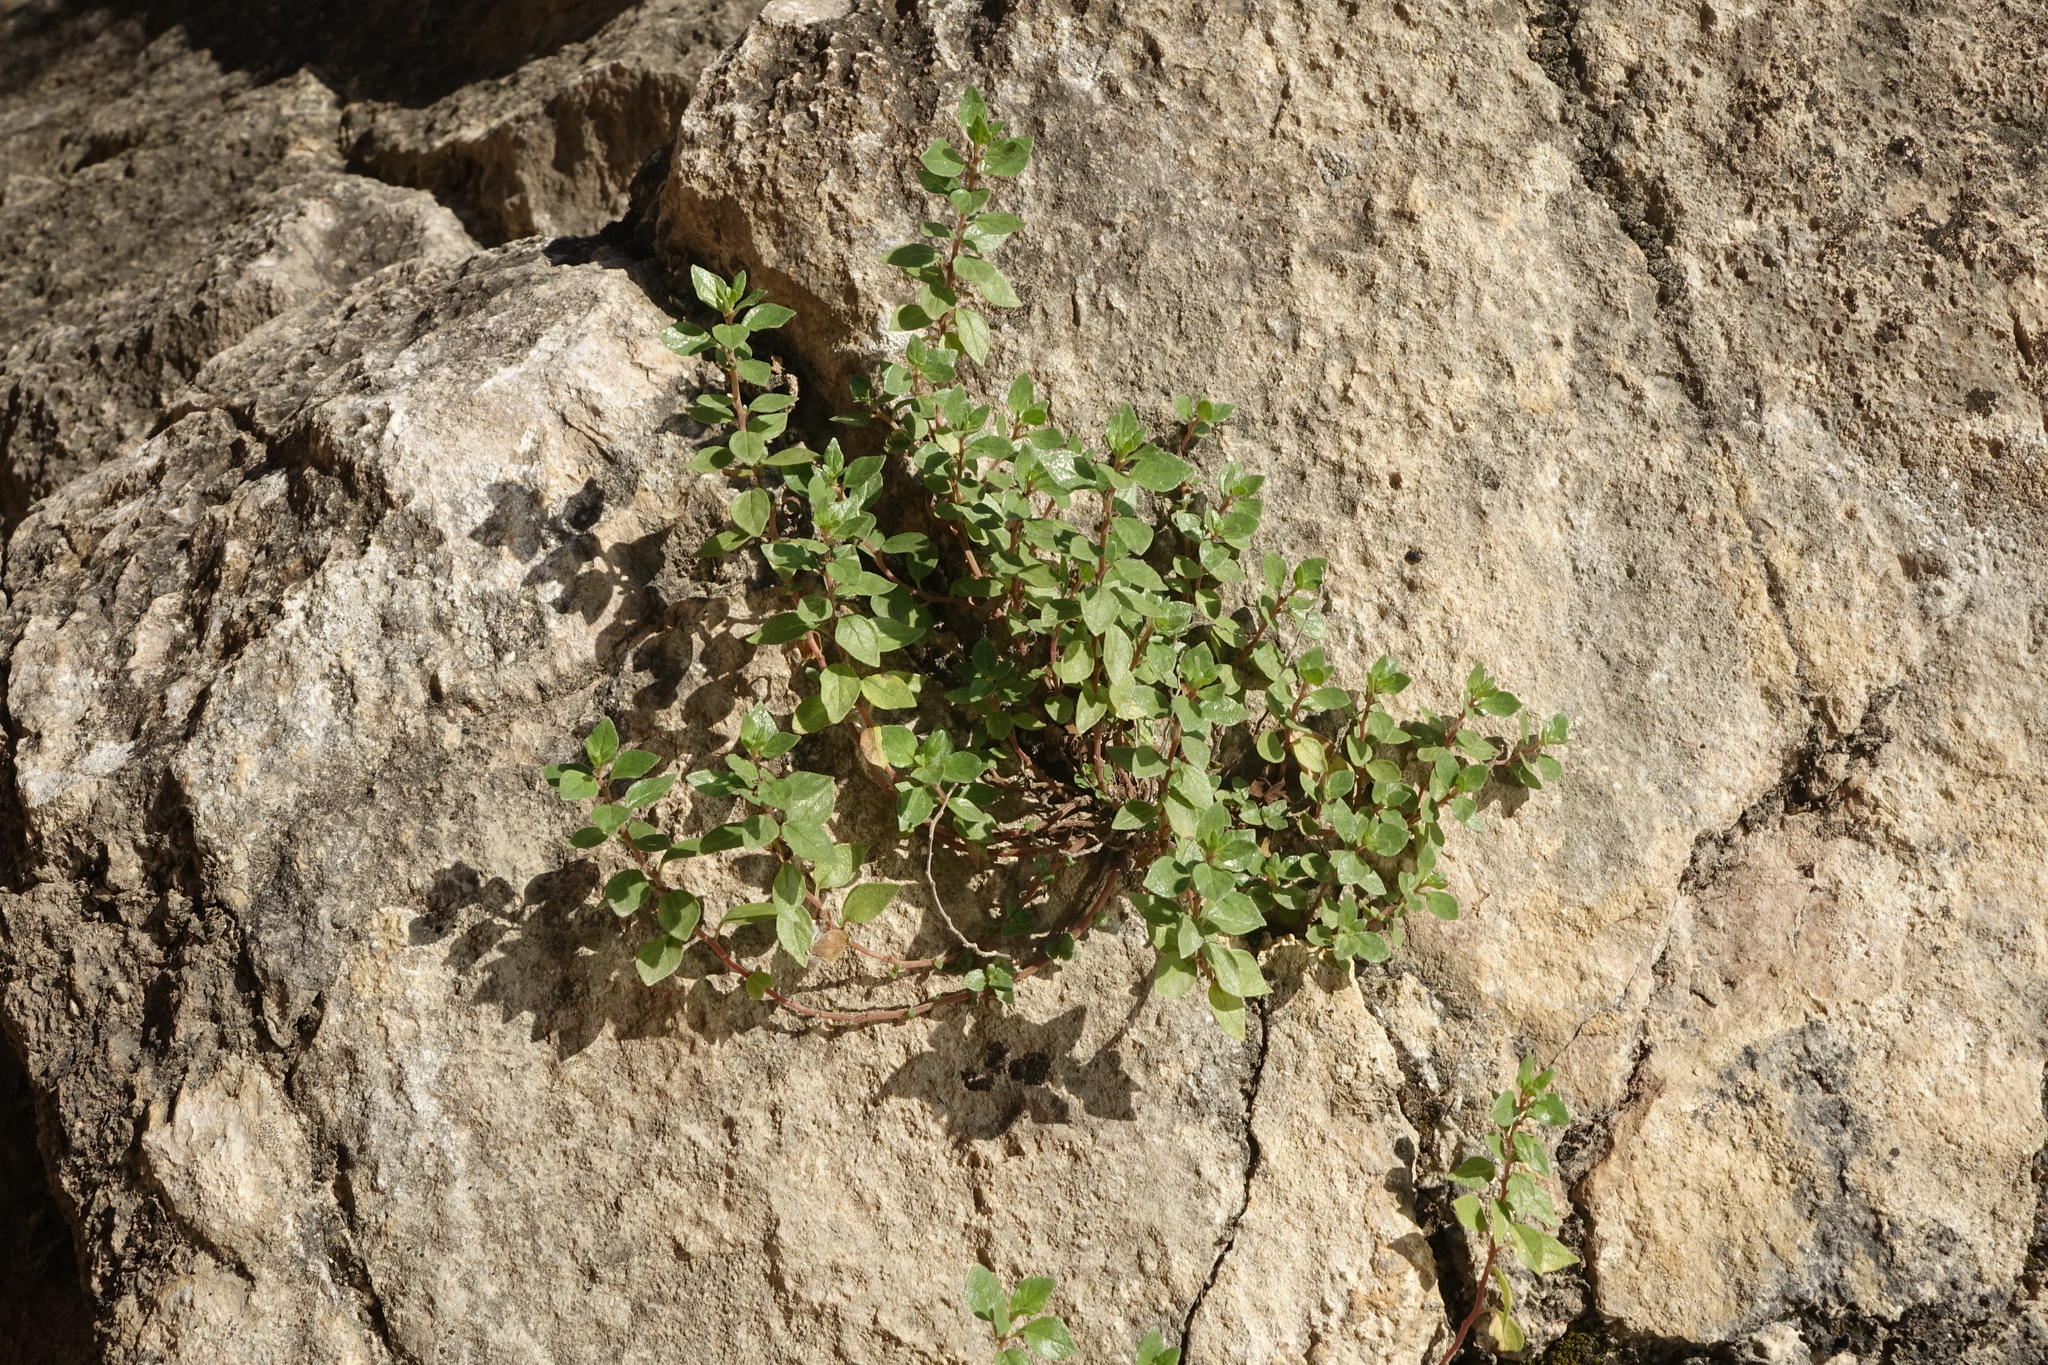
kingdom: Plantae
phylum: Tracheophyta
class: Magnoliopsida
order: Rosales
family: Urticaceae
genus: Parietaria
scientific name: Parietaria judaica
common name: Pellitory-of-the-wall
